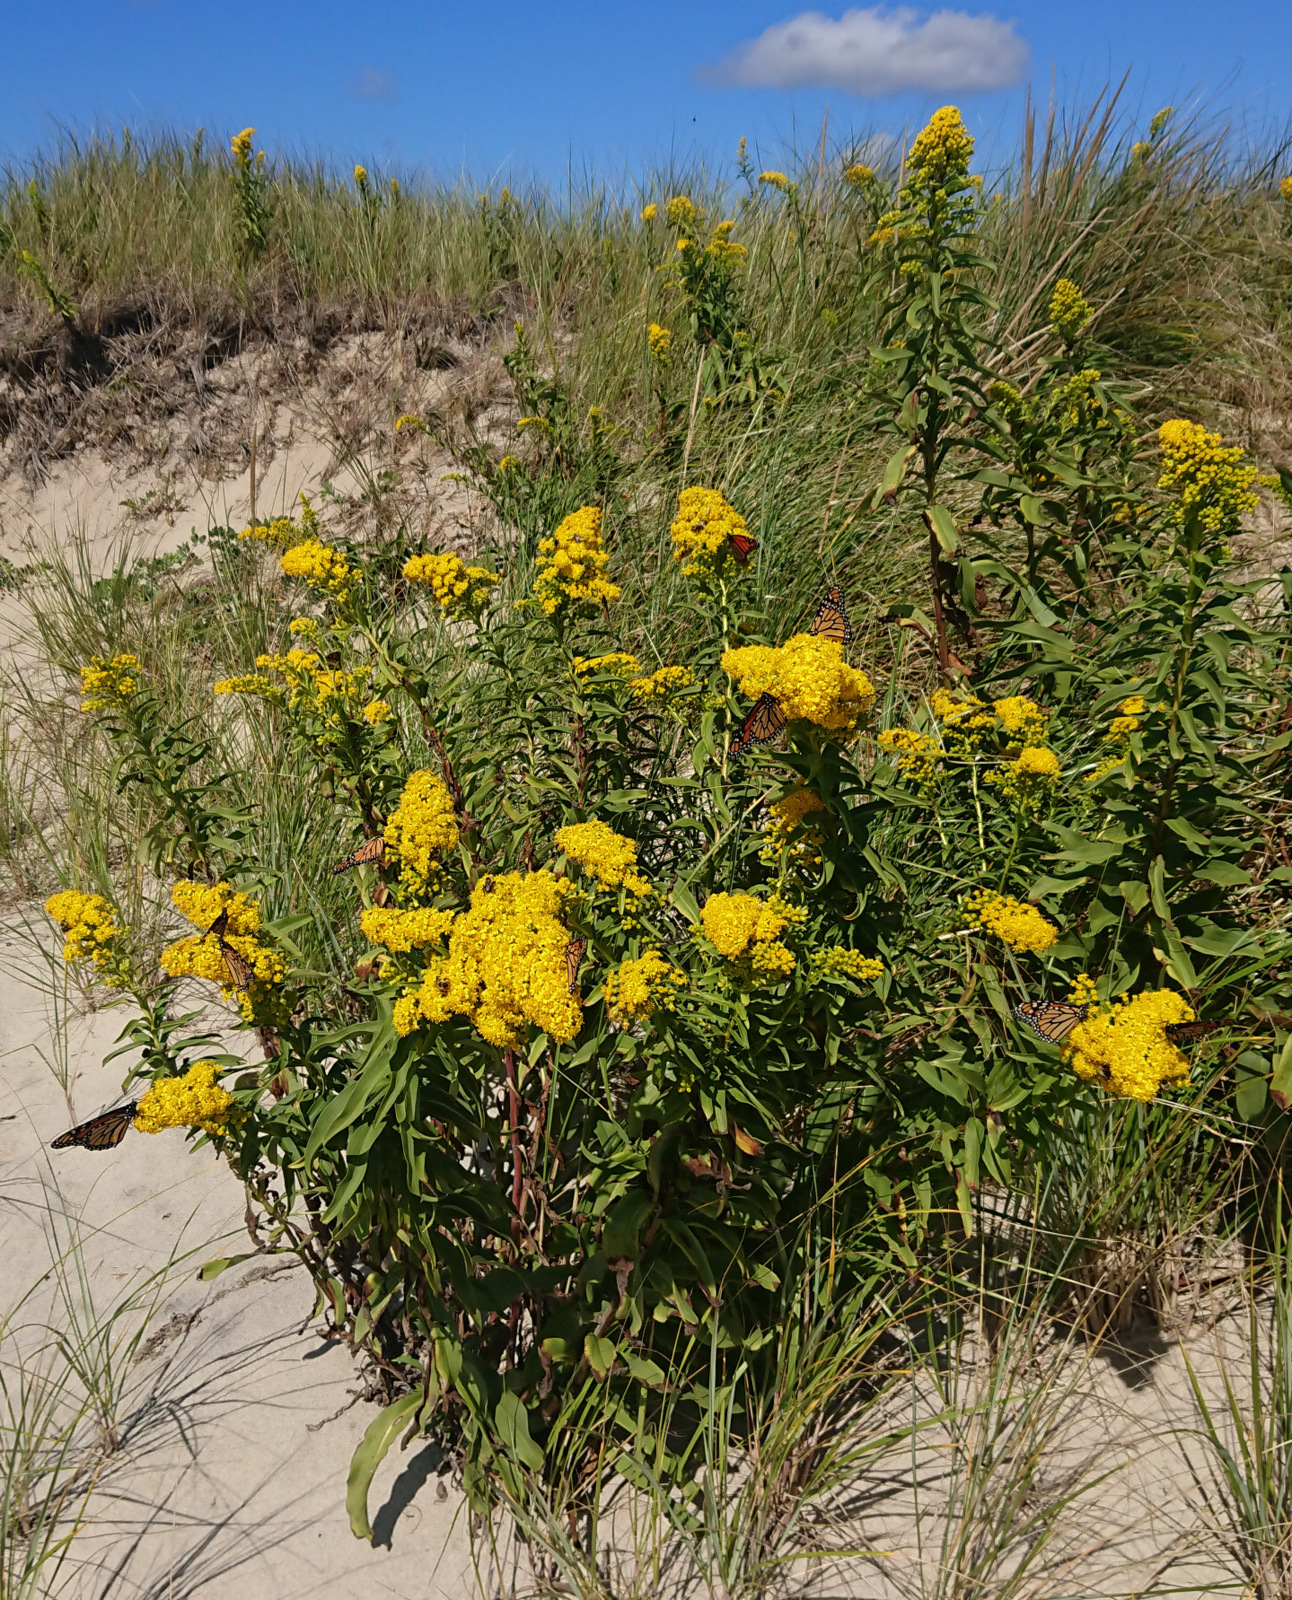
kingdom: Plantae
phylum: Tracheophyta
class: Magnoliopsida
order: Asterales
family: Asteraceae
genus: Solidago
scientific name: Solidago sempervirens
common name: Salt-marsh goldenrod
